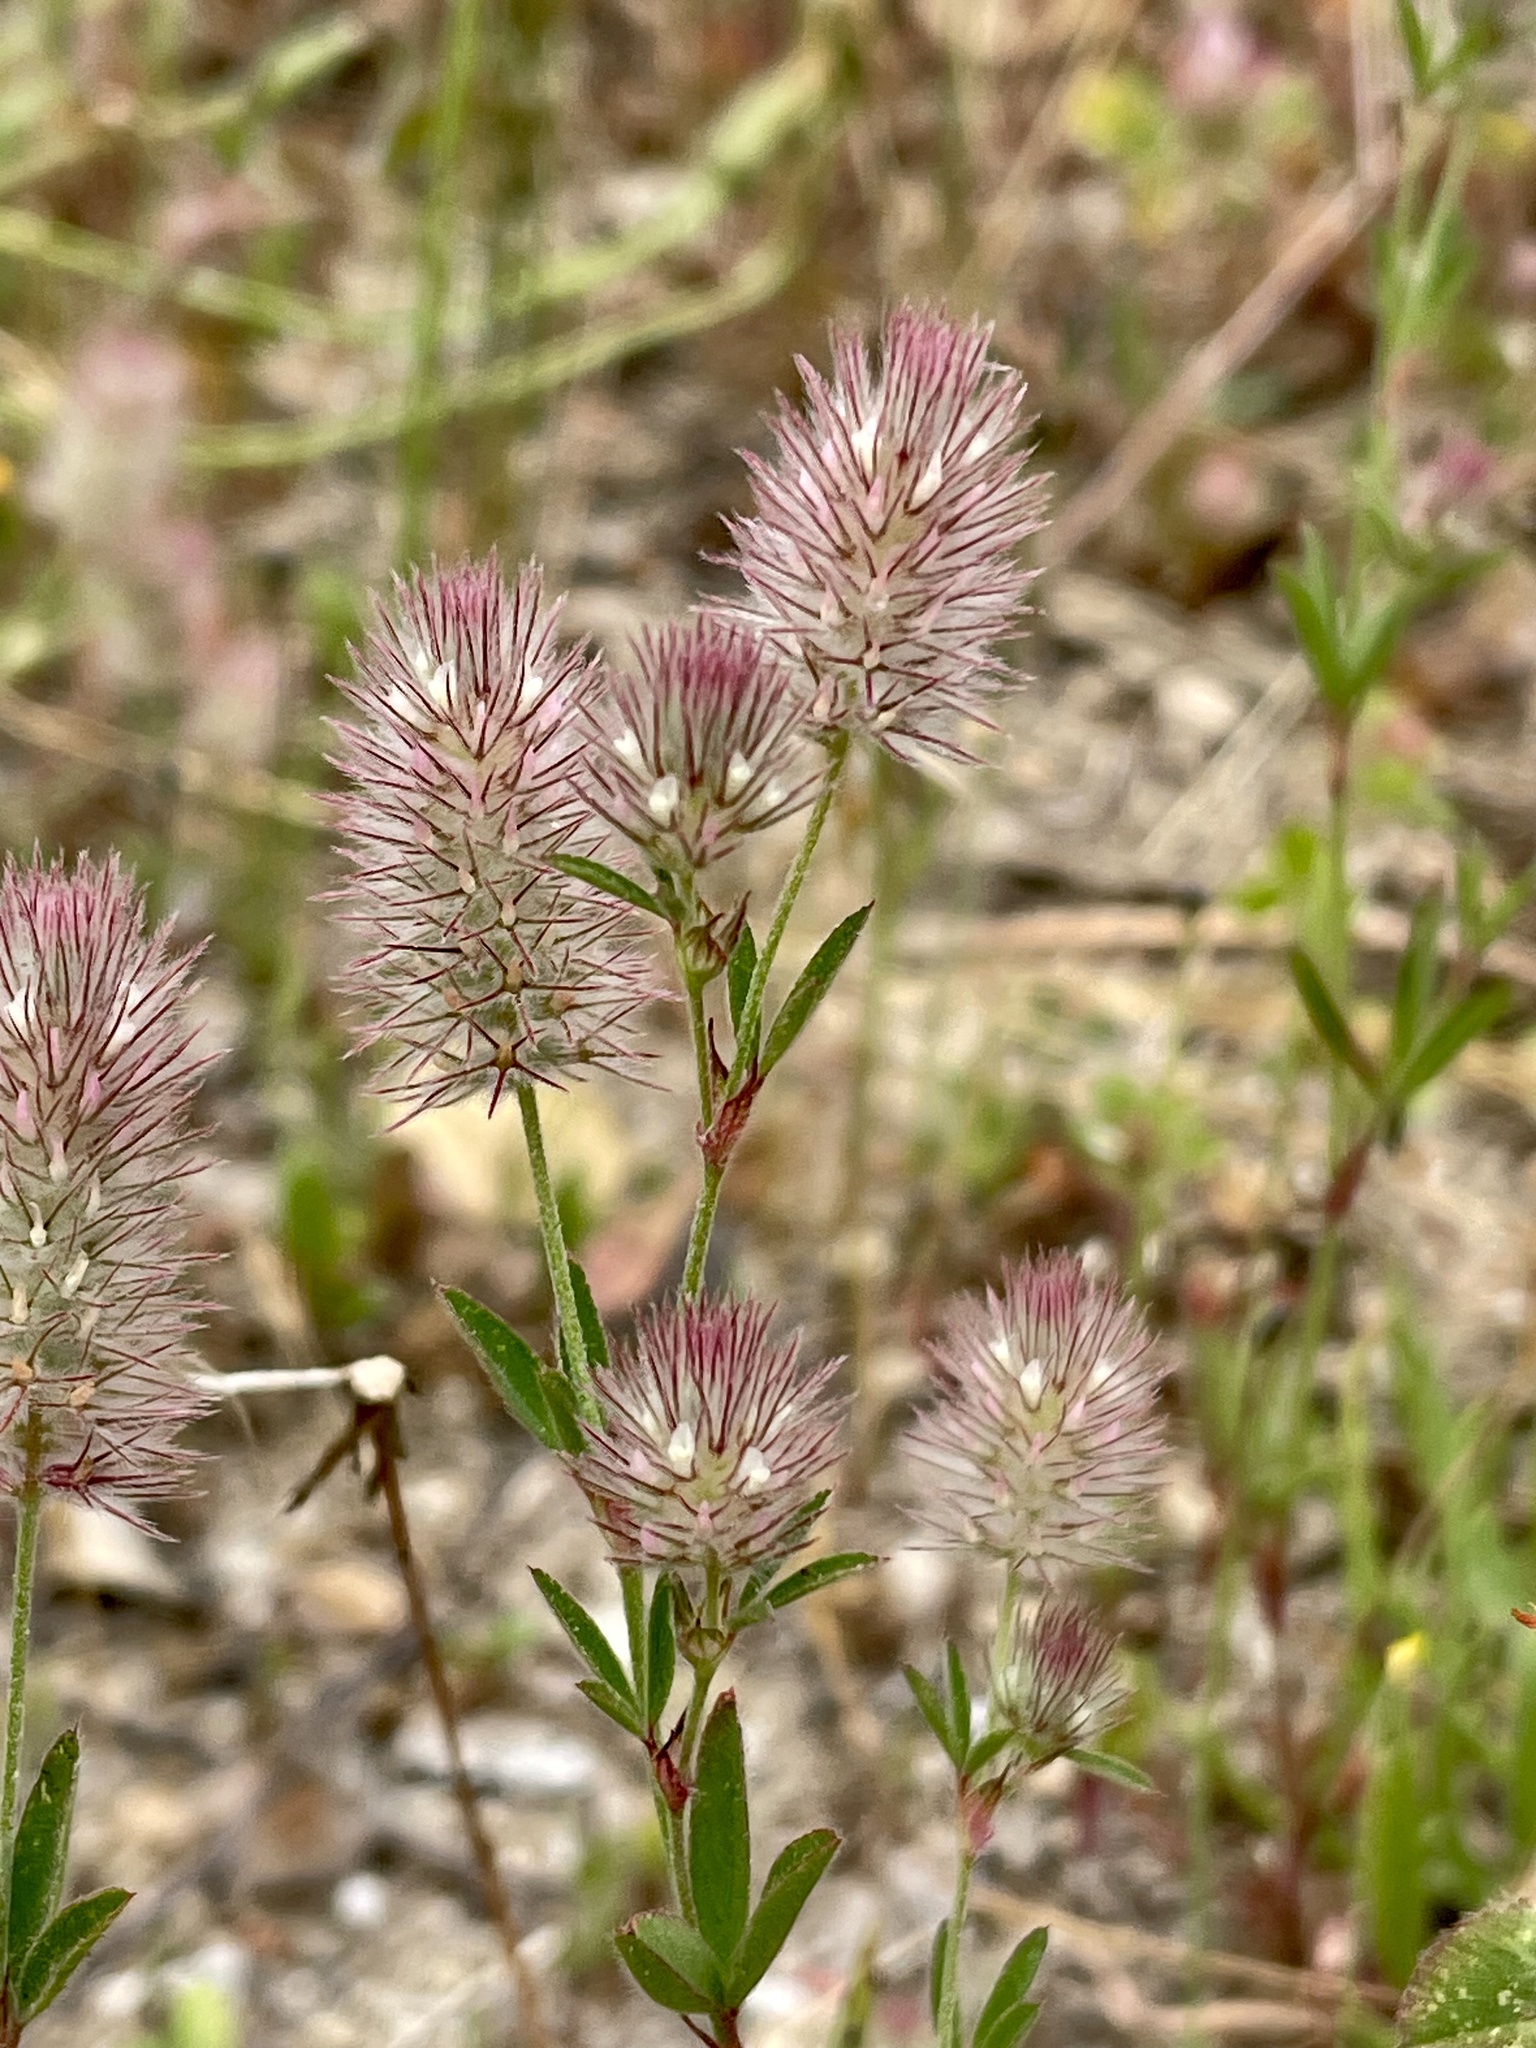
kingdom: Plantae
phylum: Tracheophyta
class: Magnoliopsida
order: Fabales
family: Fabaceae
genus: Trifolium
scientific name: Trifolium arvense
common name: Hare's-foot clover
